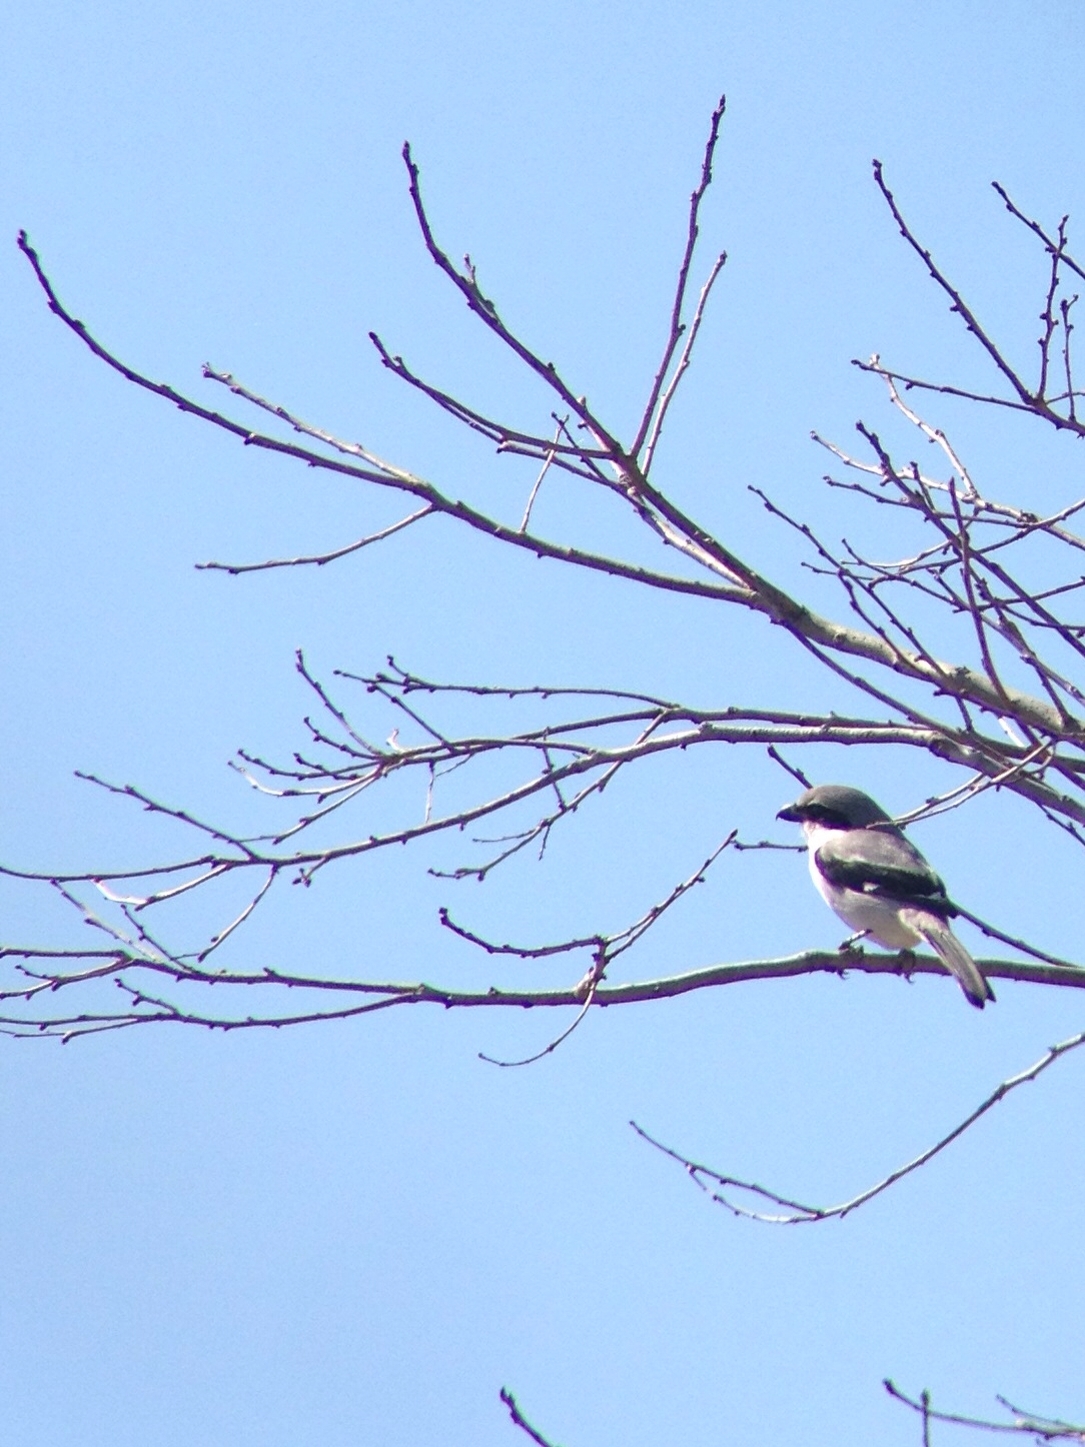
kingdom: Animalia
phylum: Chordata
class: Aves
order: Passeriformes
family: Laniidae
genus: Lanius
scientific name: Lanius ludovicianus
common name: Loggerhead shrike
